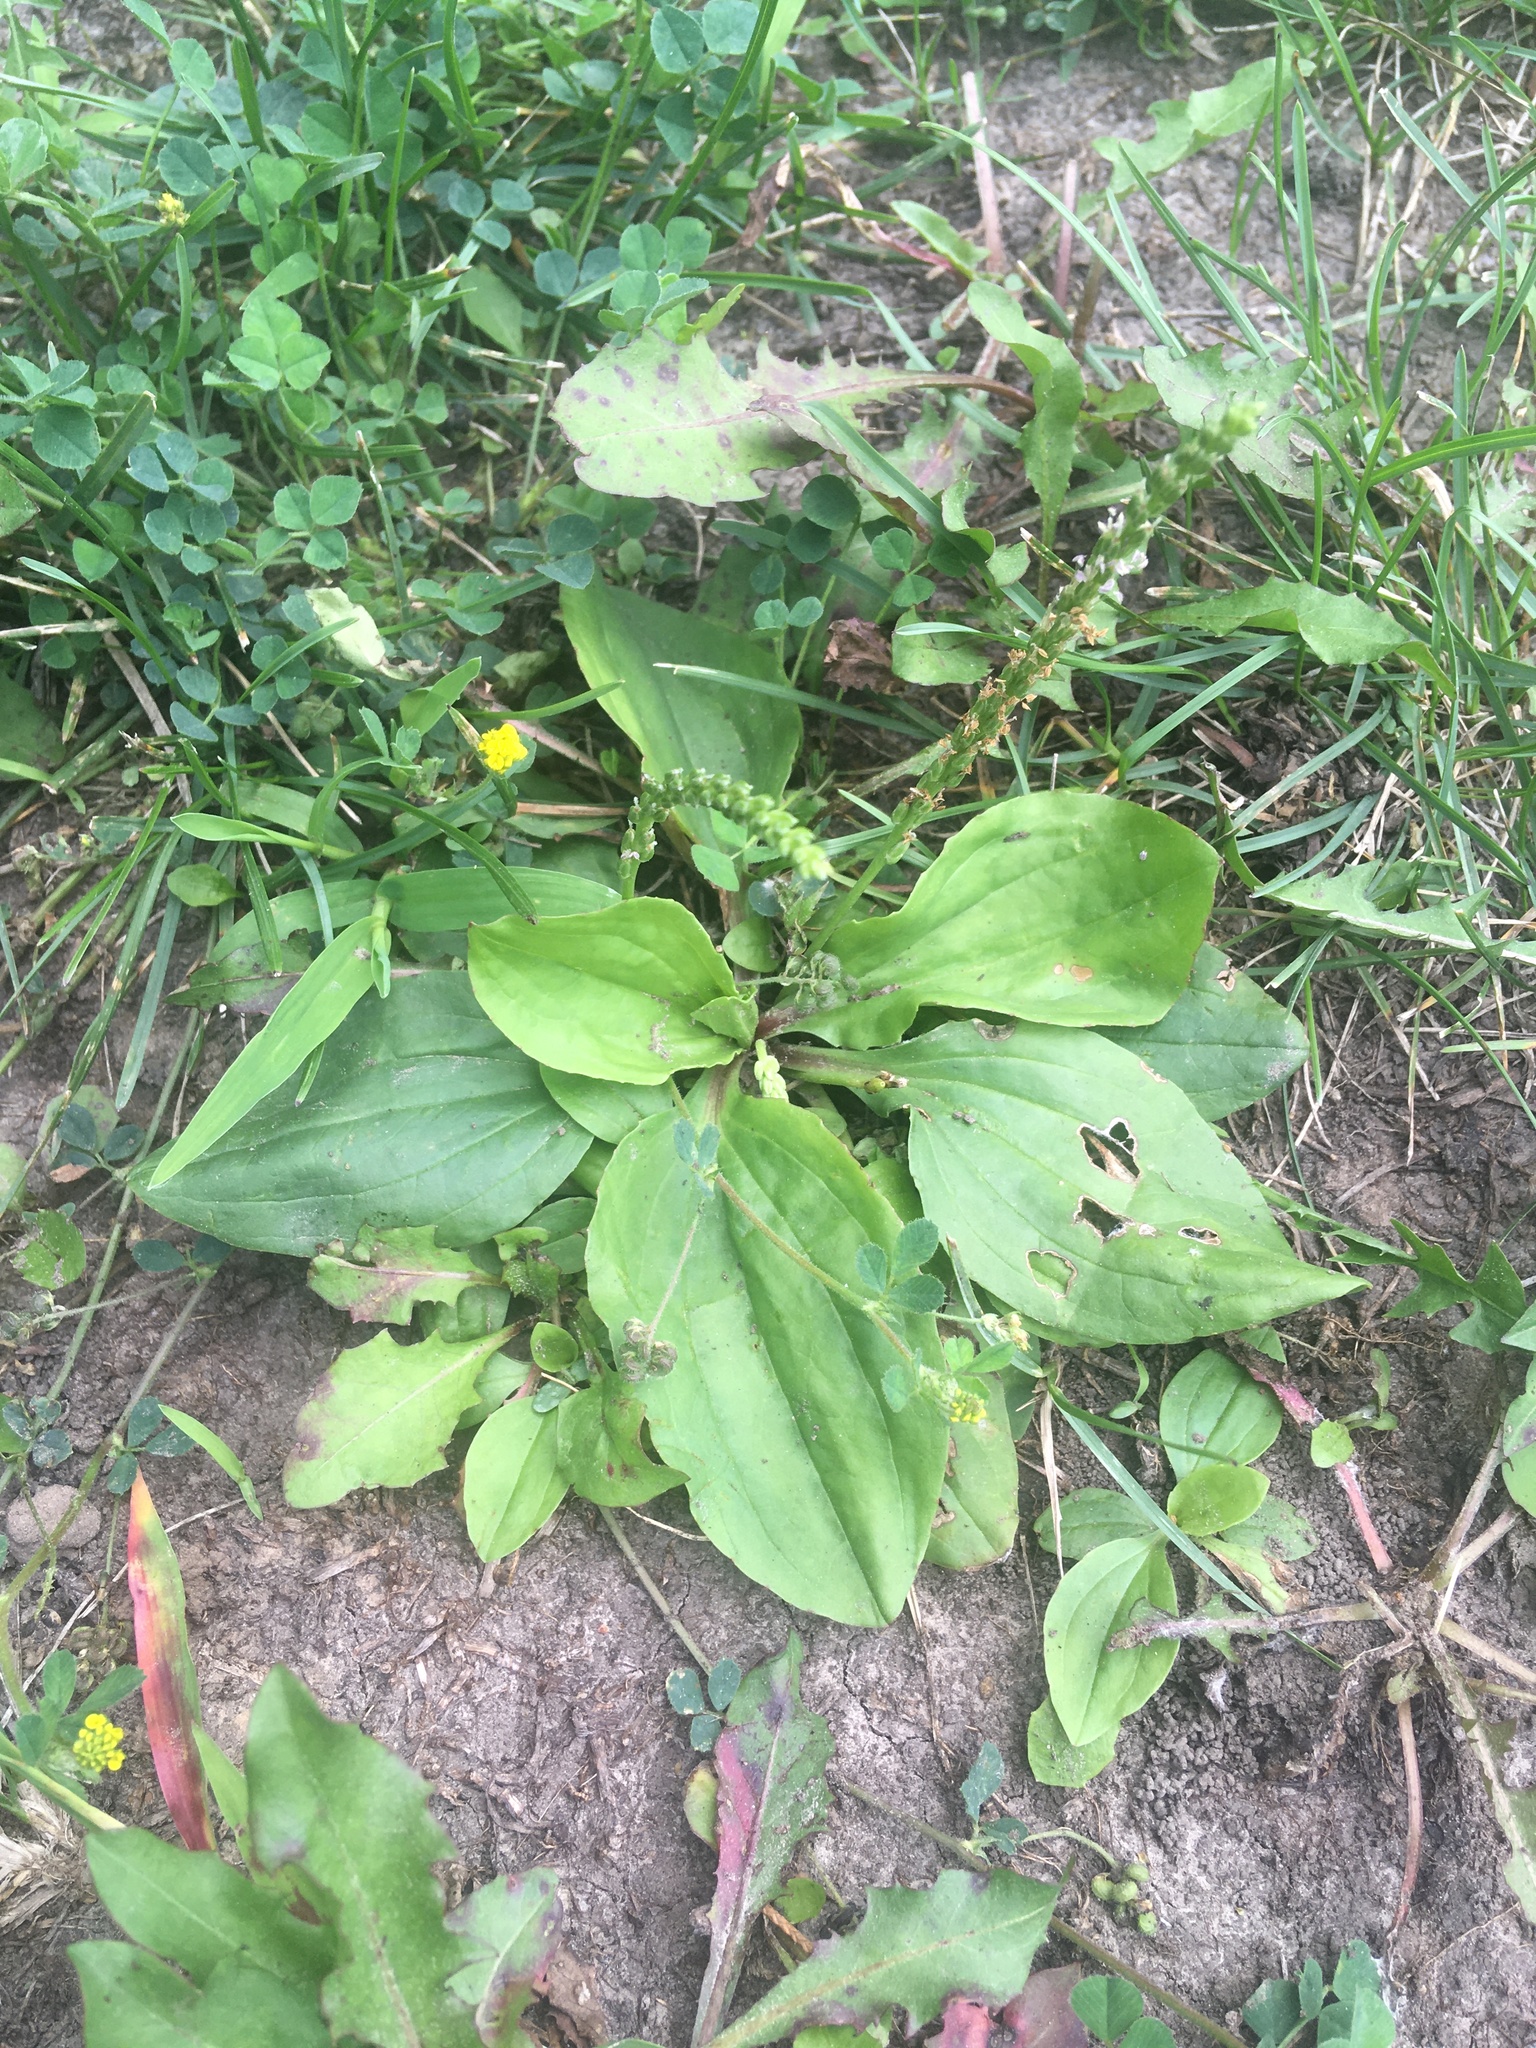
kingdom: Plantae
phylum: Tracheophyta
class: Magnoliopsida
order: Lamiales
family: Plantaginaceae
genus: Plantago
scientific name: Plantago rugelii
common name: American plantain
